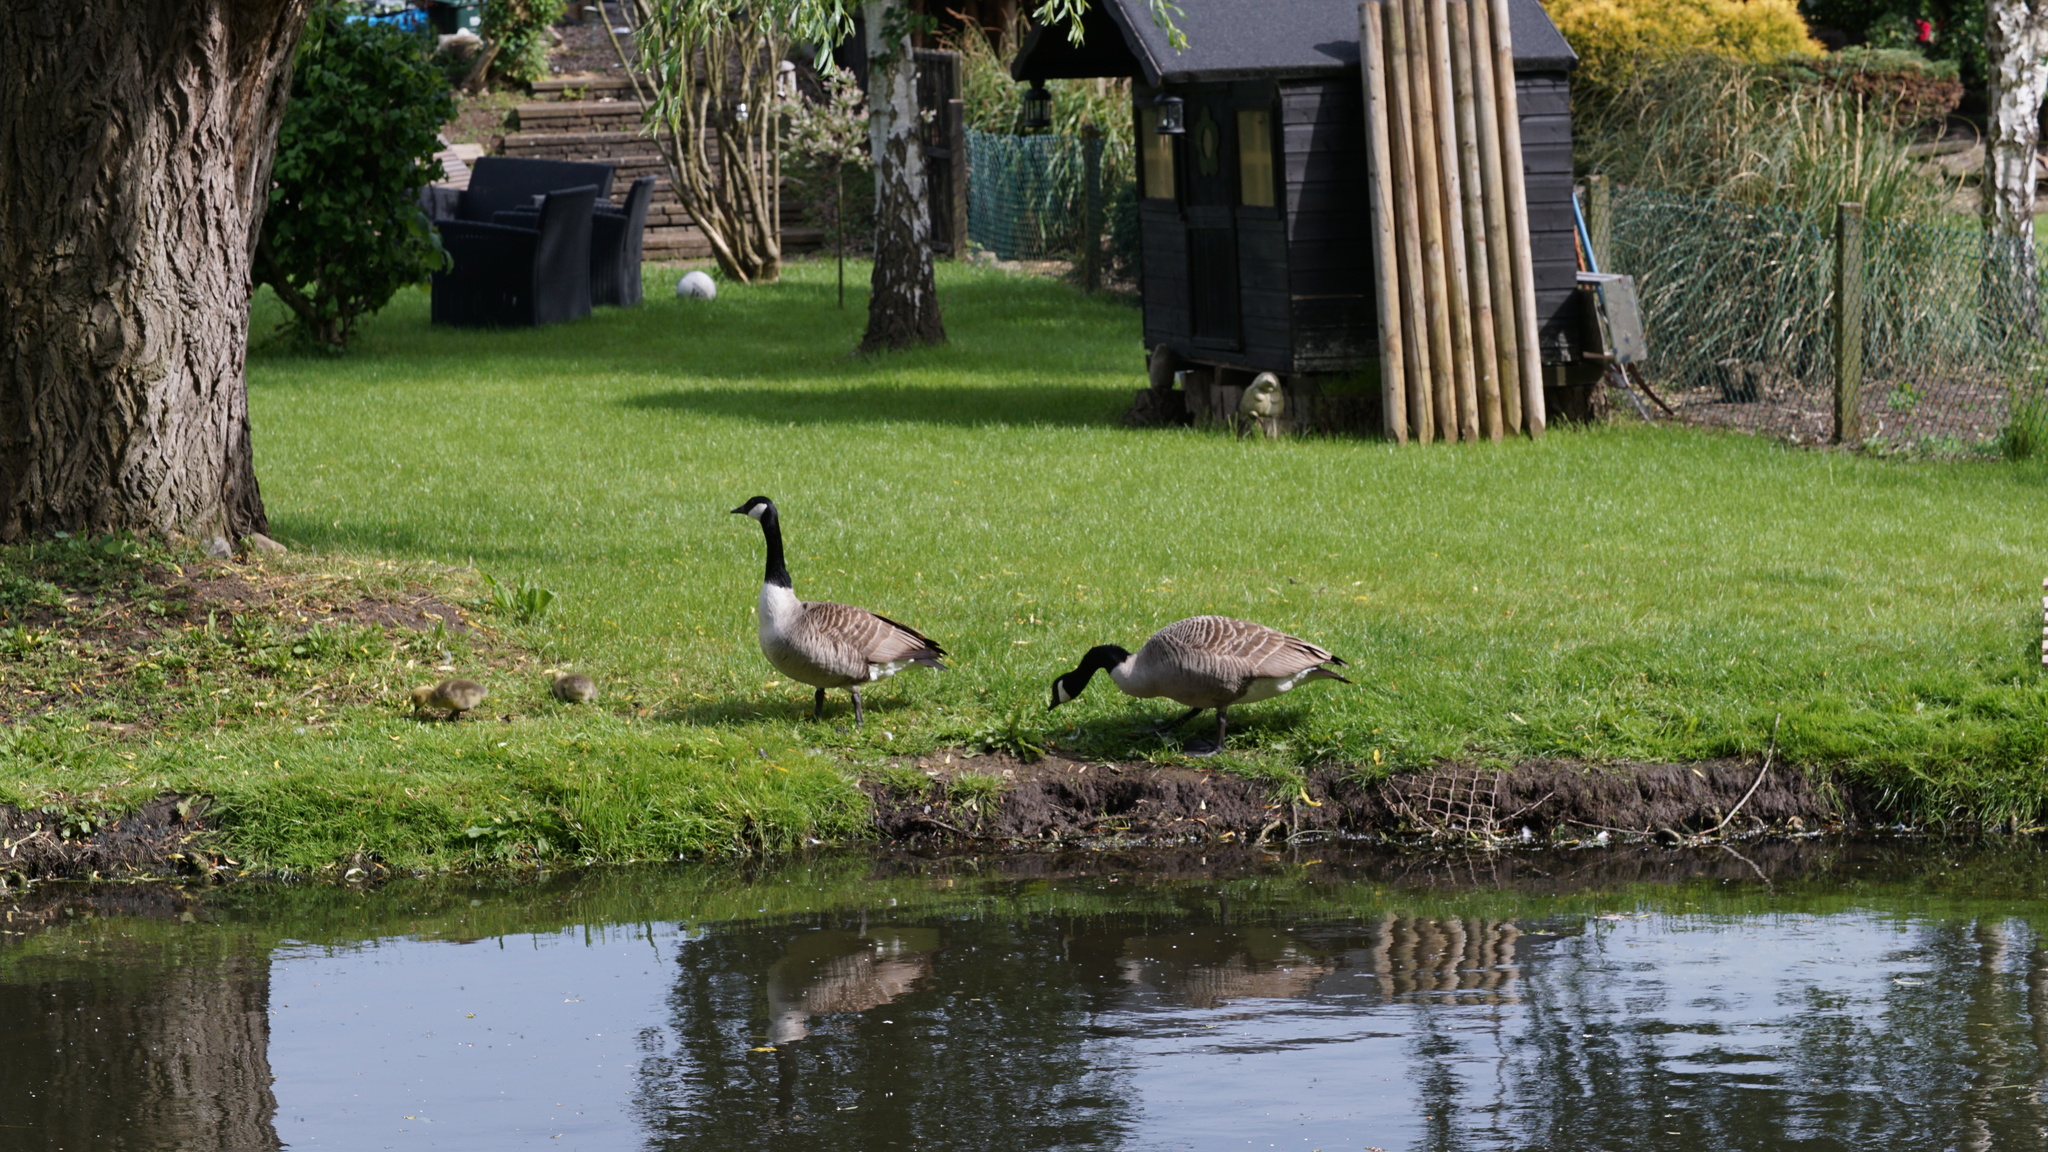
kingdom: Animalia
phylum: Chordata
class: Aves
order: Anseriformes
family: Anatidae
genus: Branta
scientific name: Branta canadensis
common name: Canada goose
